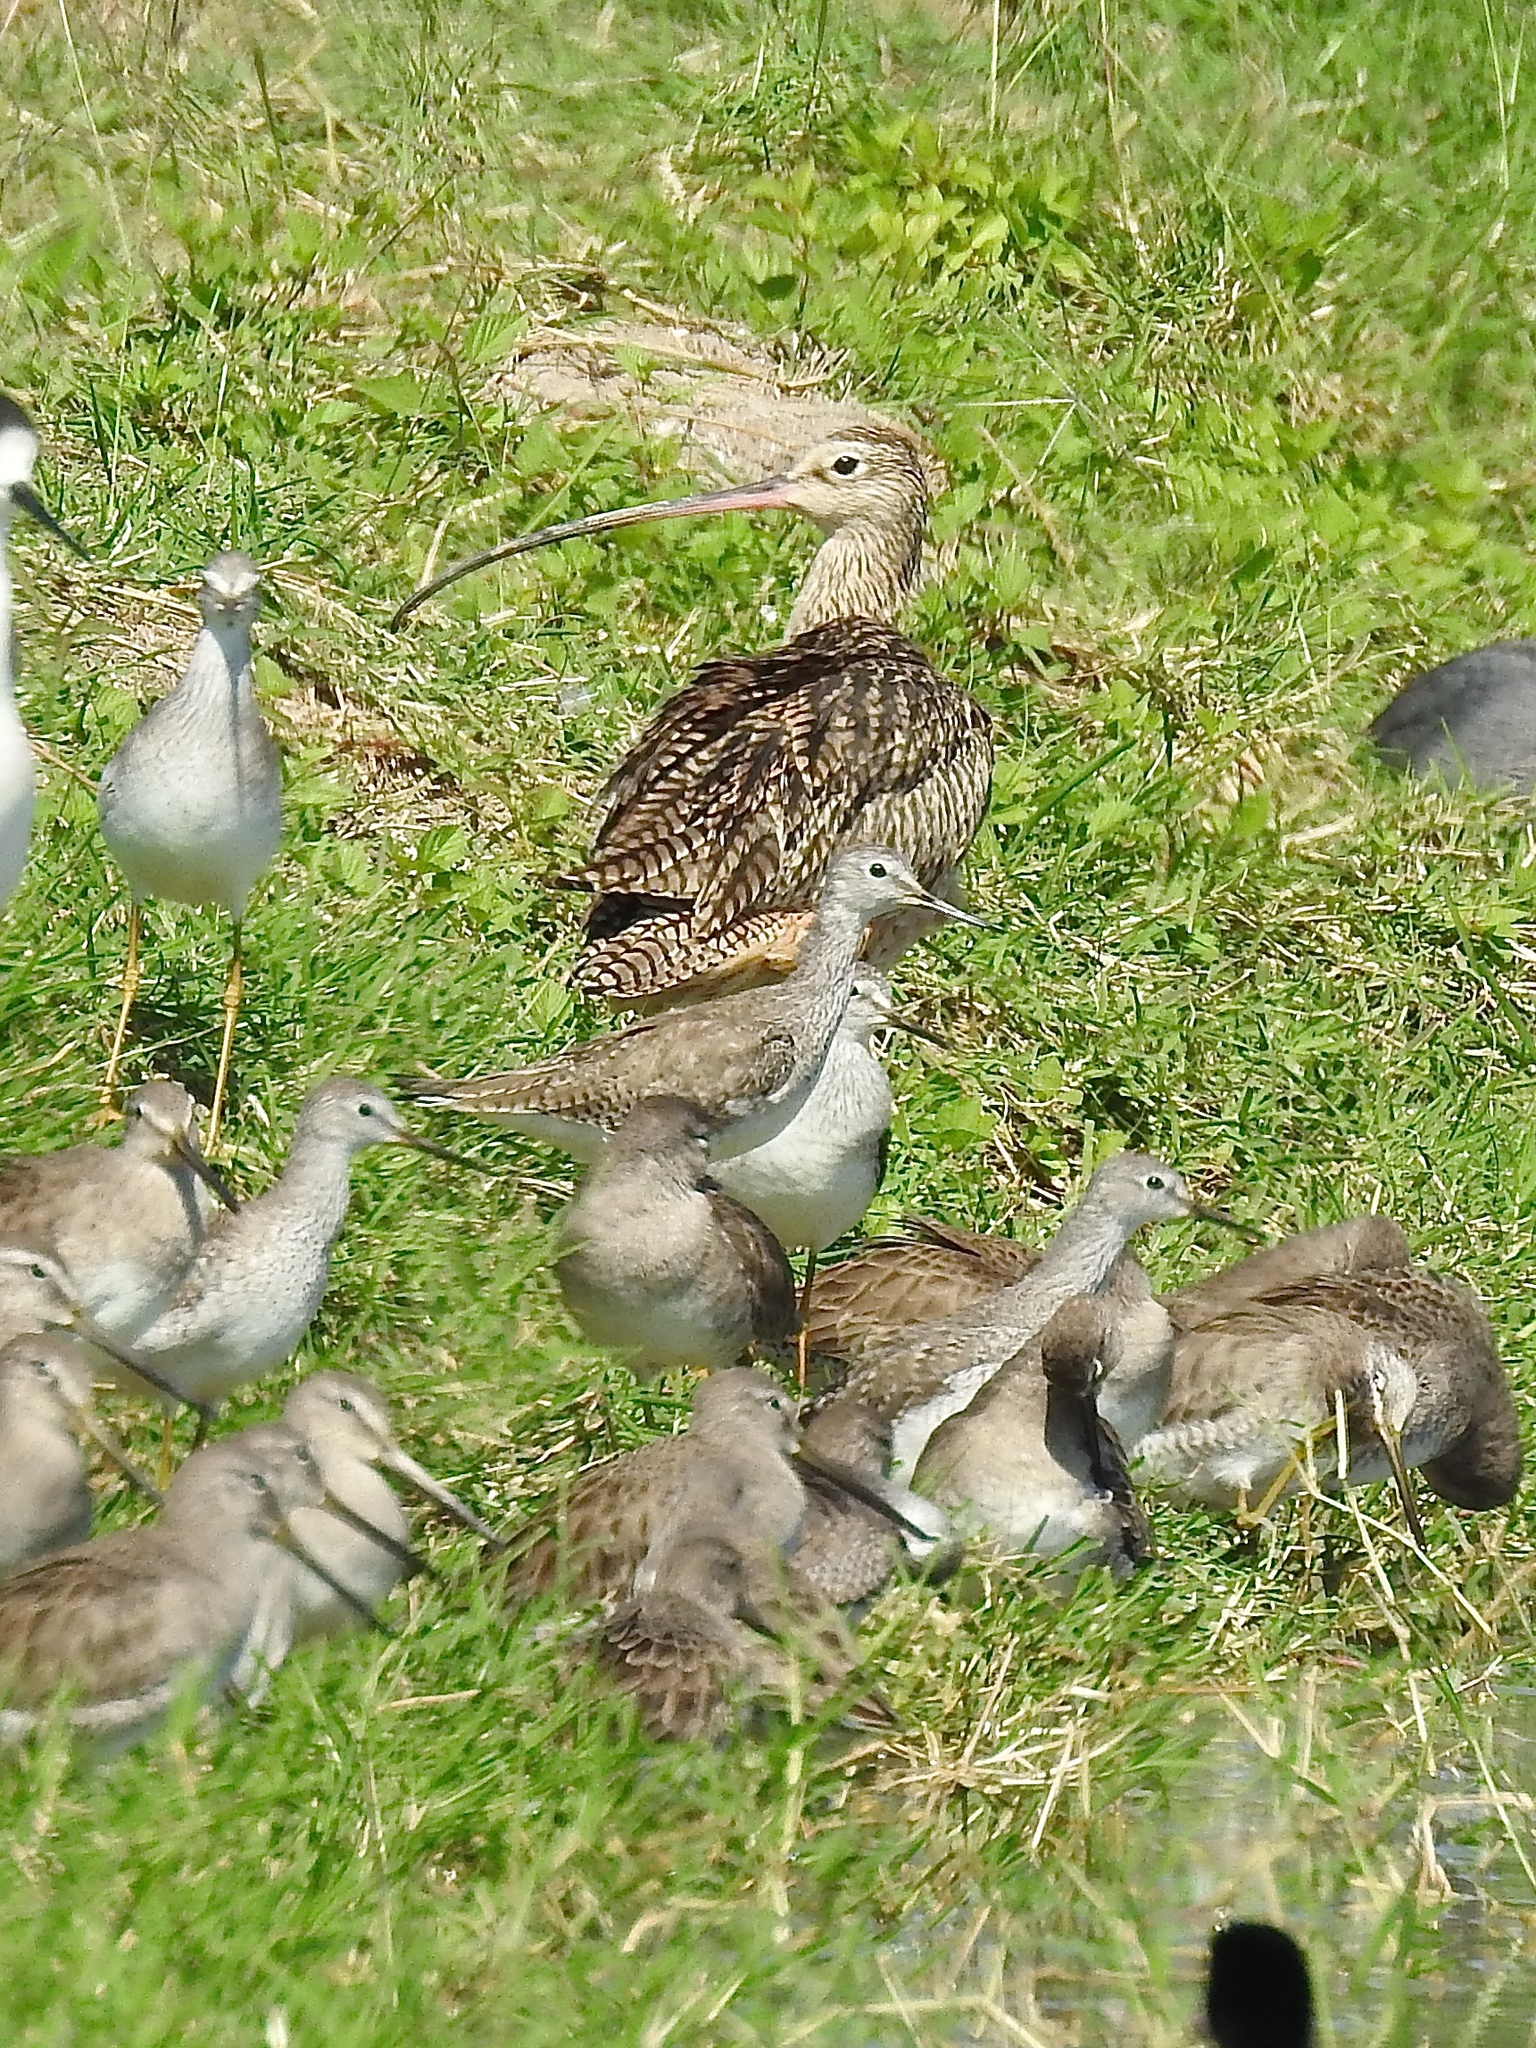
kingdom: Animalia
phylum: Chordata
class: Aves
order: Charadriiformes
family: Scolopacidae
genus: Numenius
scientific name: Numenius americanus
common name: Long-billed curlew
